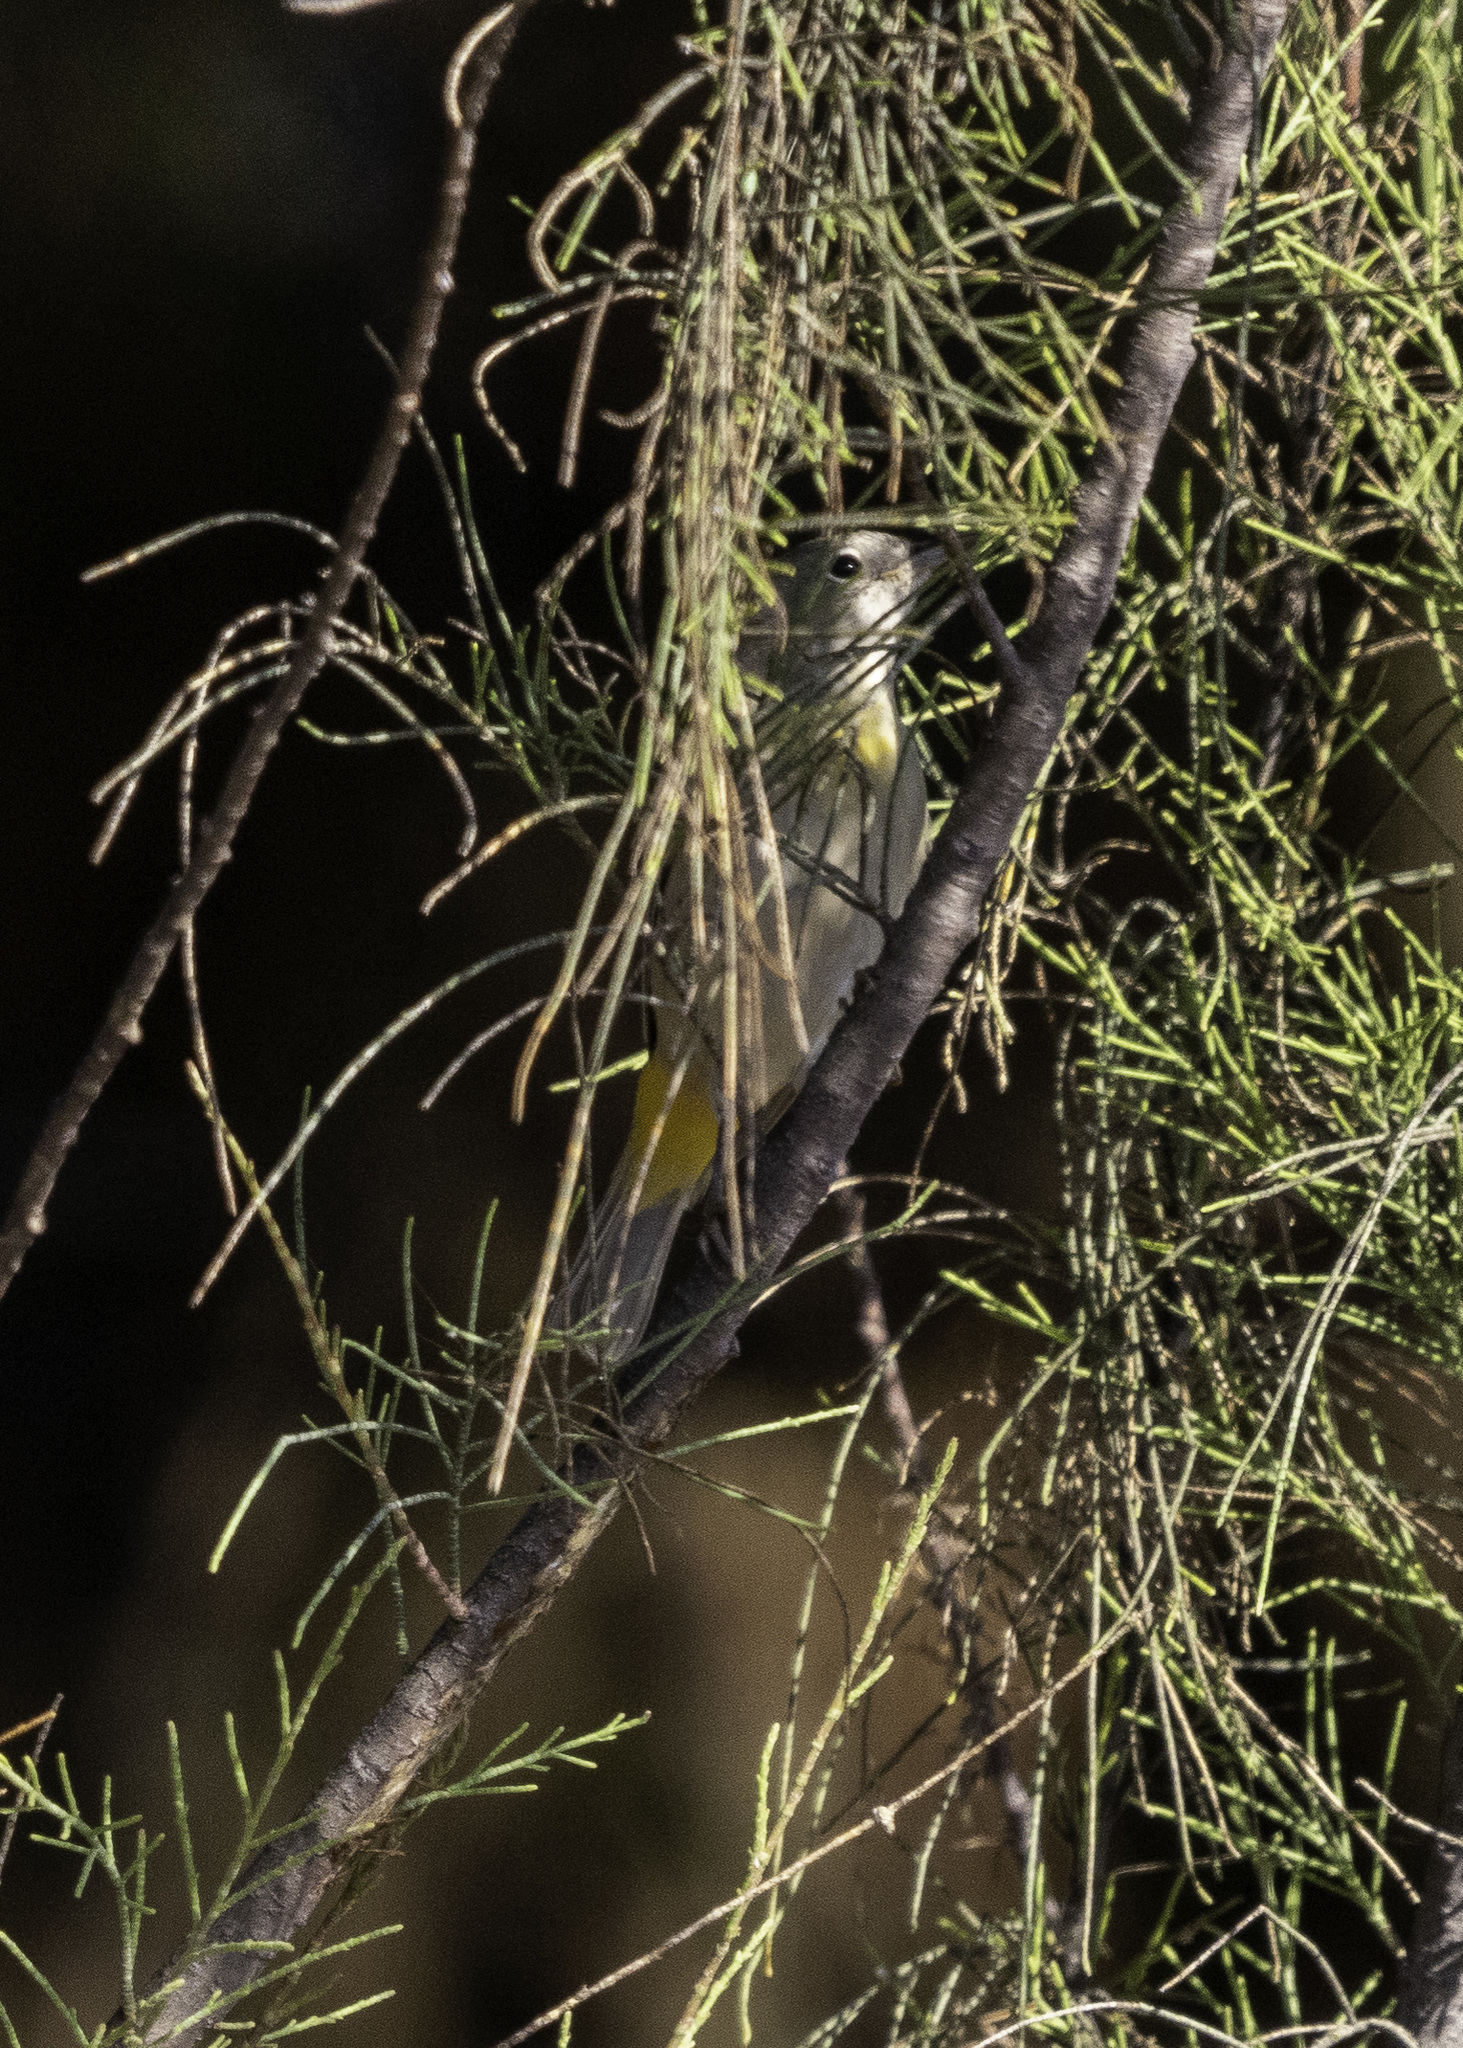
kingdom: Animalia
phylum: Chordata
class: Aves
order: Passeriformes
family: Parulidae
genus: Leiothlypis
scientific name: Leiothlypis virginiae
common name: Virginia's warbler
